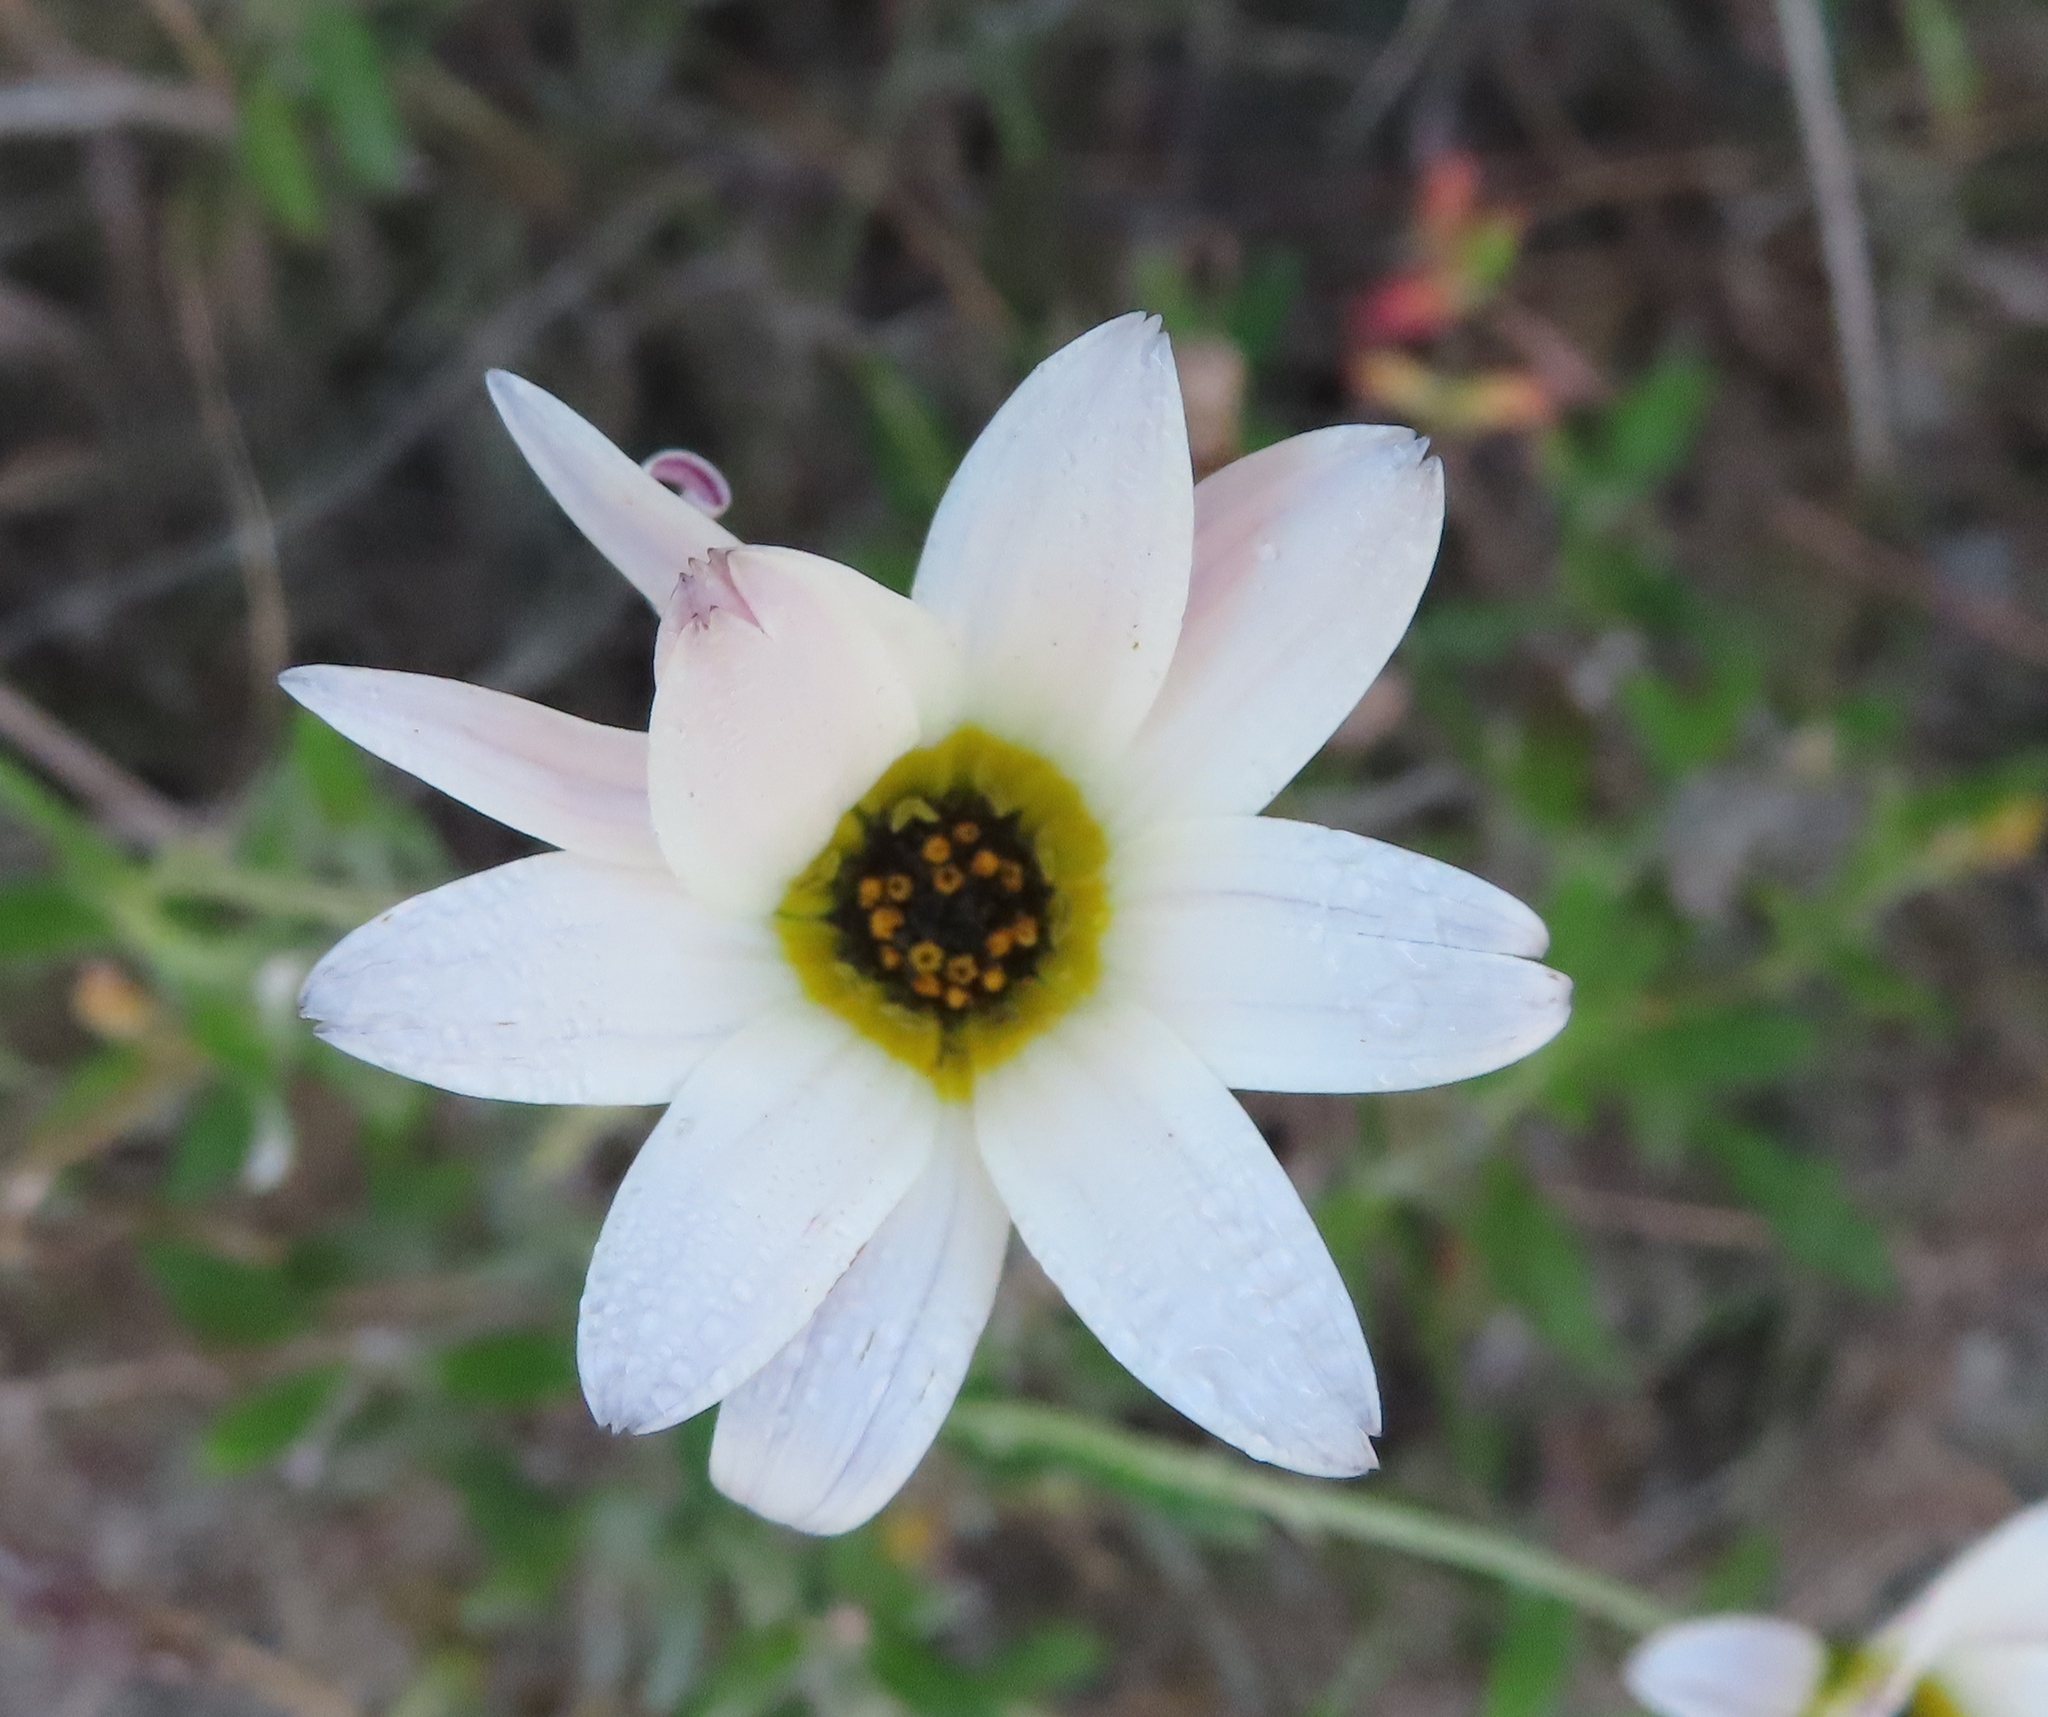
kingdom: Plantae
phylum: Tracheophyta
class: Magnoliopsida
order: Asterales
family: Asteraceae
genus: Arctotis
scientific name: Arctotis schlechteri
